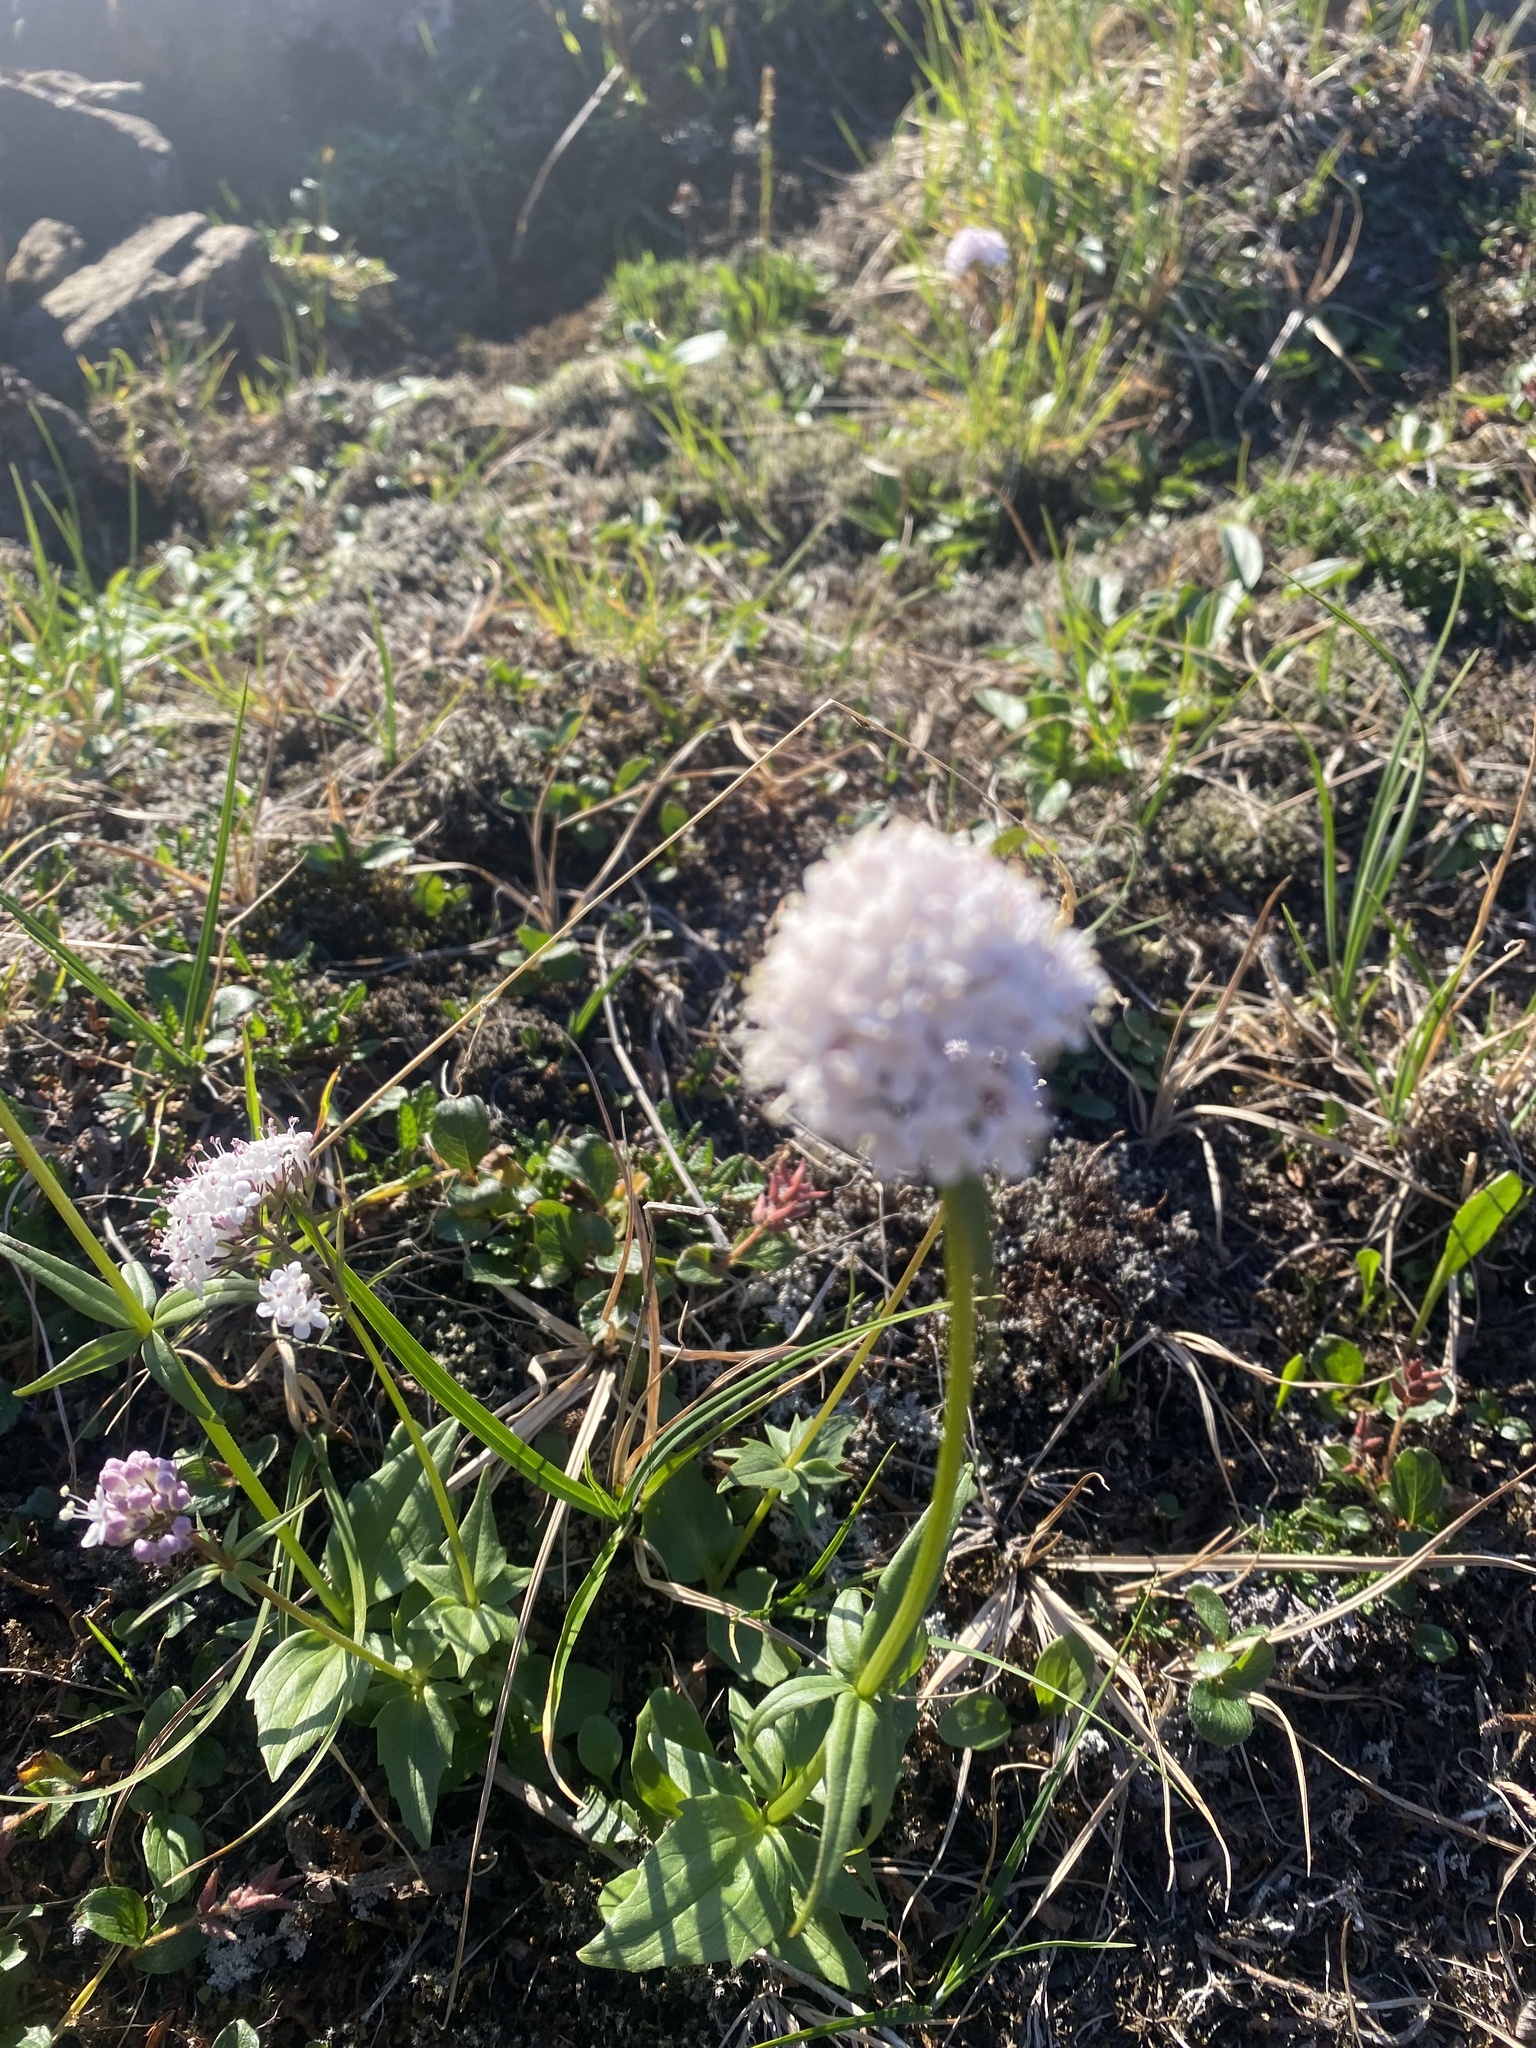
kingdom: Plantae
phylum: Tracheophyta
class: Magnoliopsida
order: Dipsacales
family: Caprifoliaceae
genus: Valeriana
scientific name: Valeriana capitata
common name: Capitate valerian
